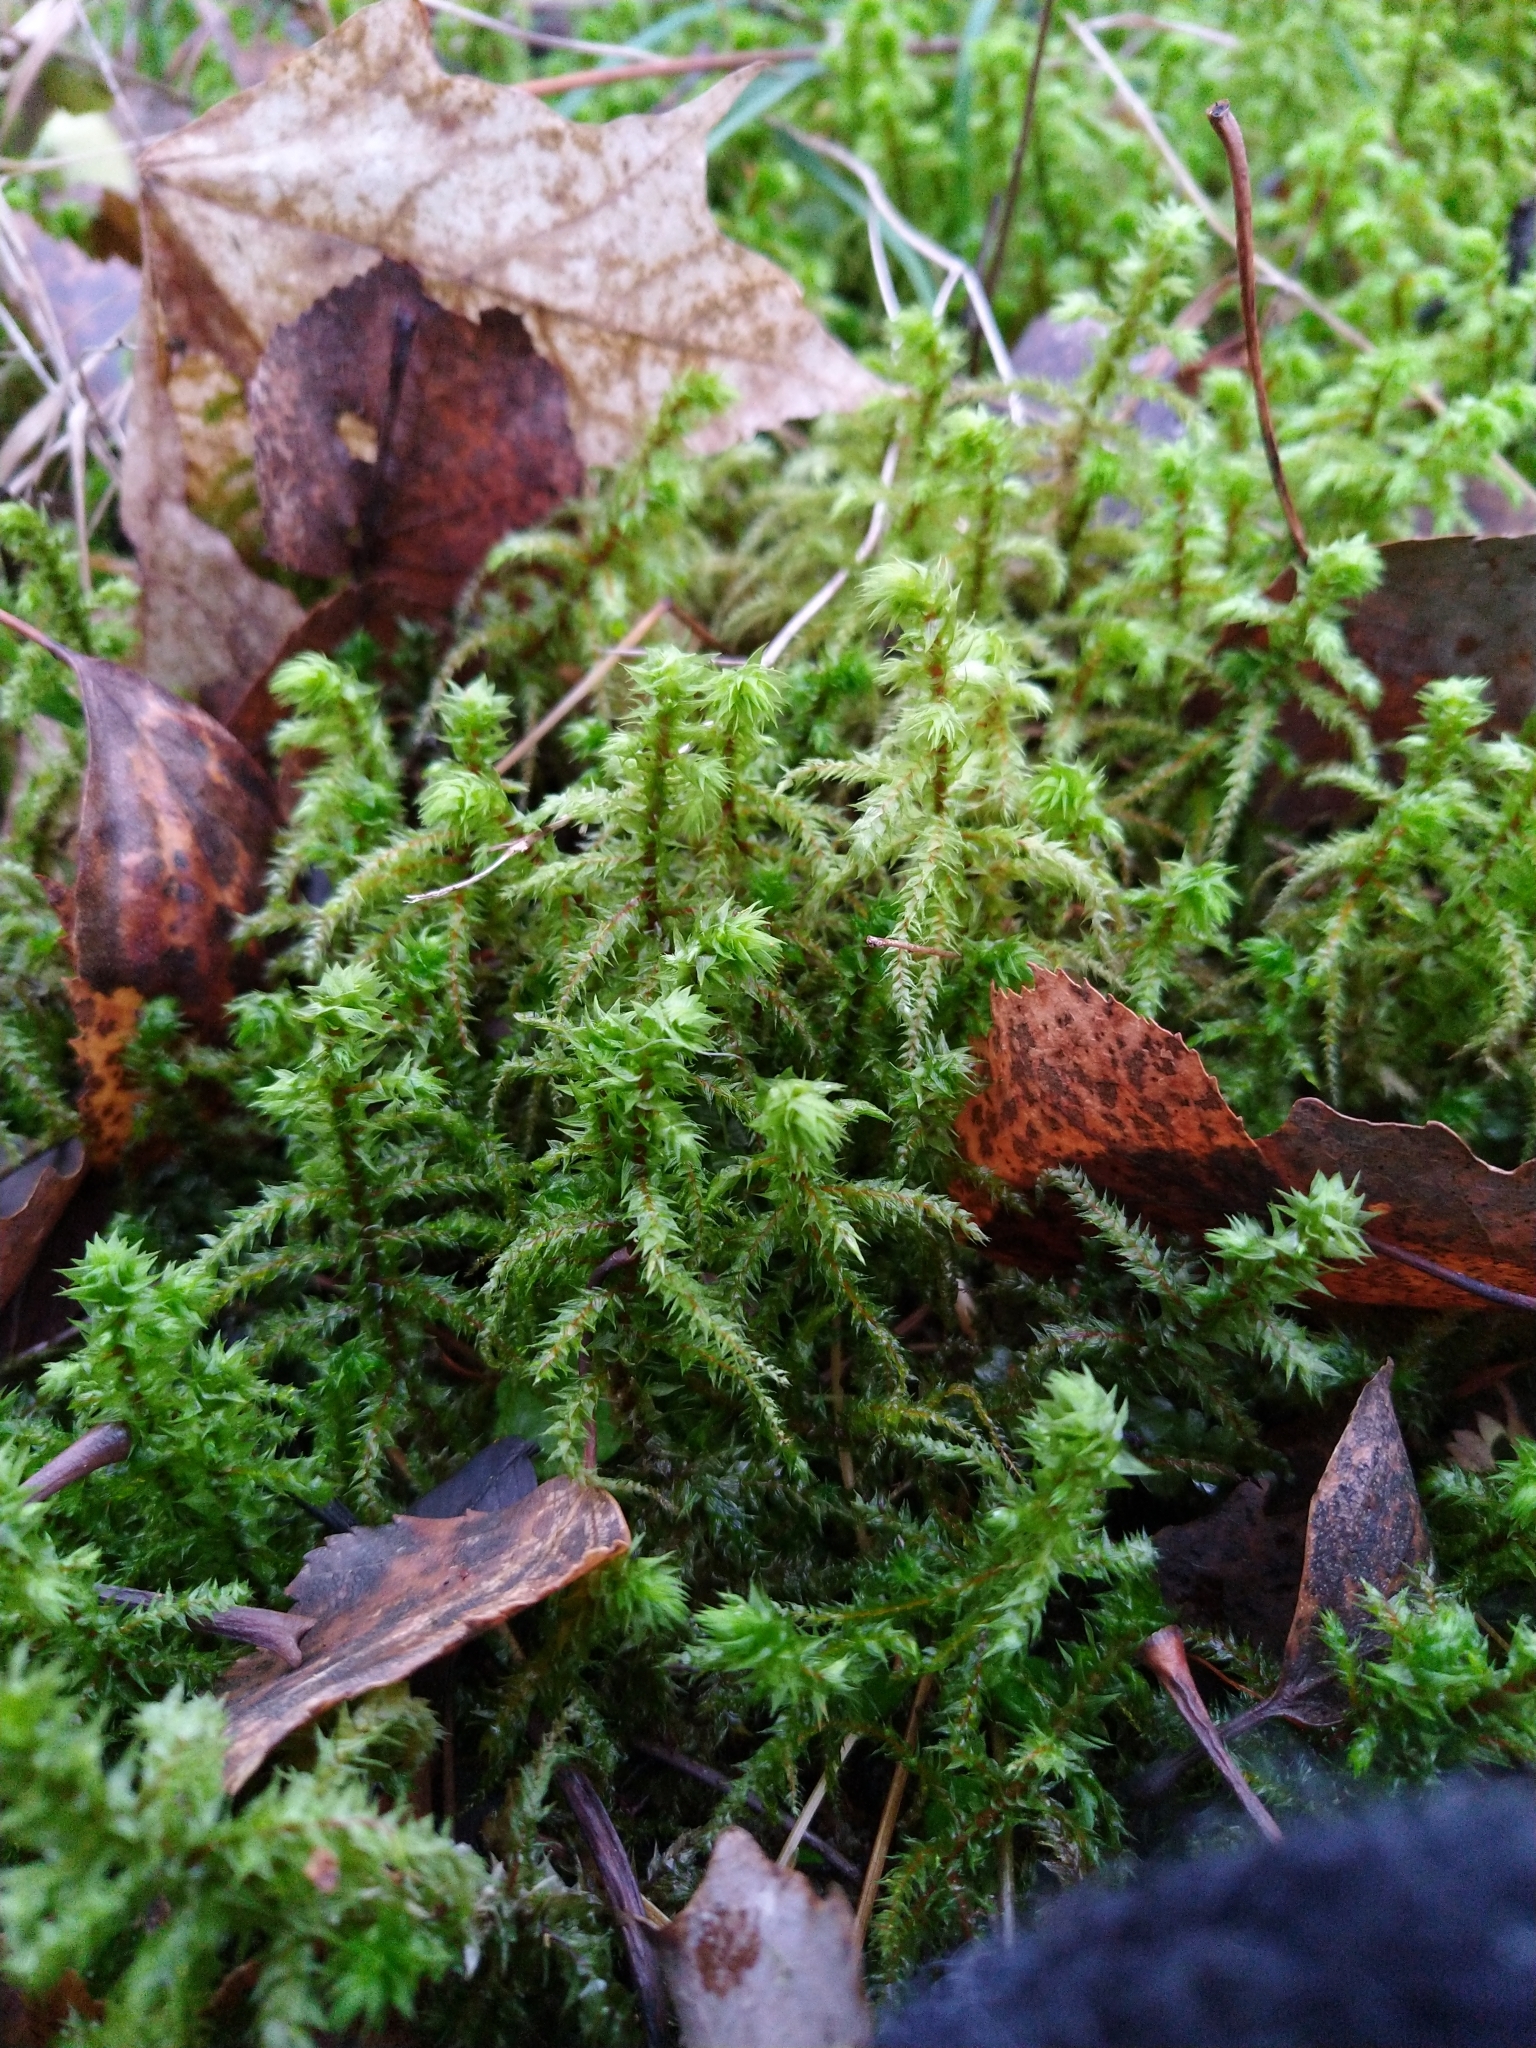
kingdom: Plantae
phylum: Bryophyta
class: Bryopsida
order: Hypnales
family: Hylocomiaceae
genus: Hylocomiadelphus
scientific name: Hylocomiadelphus triquetrus
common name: Rough goose neck moss
